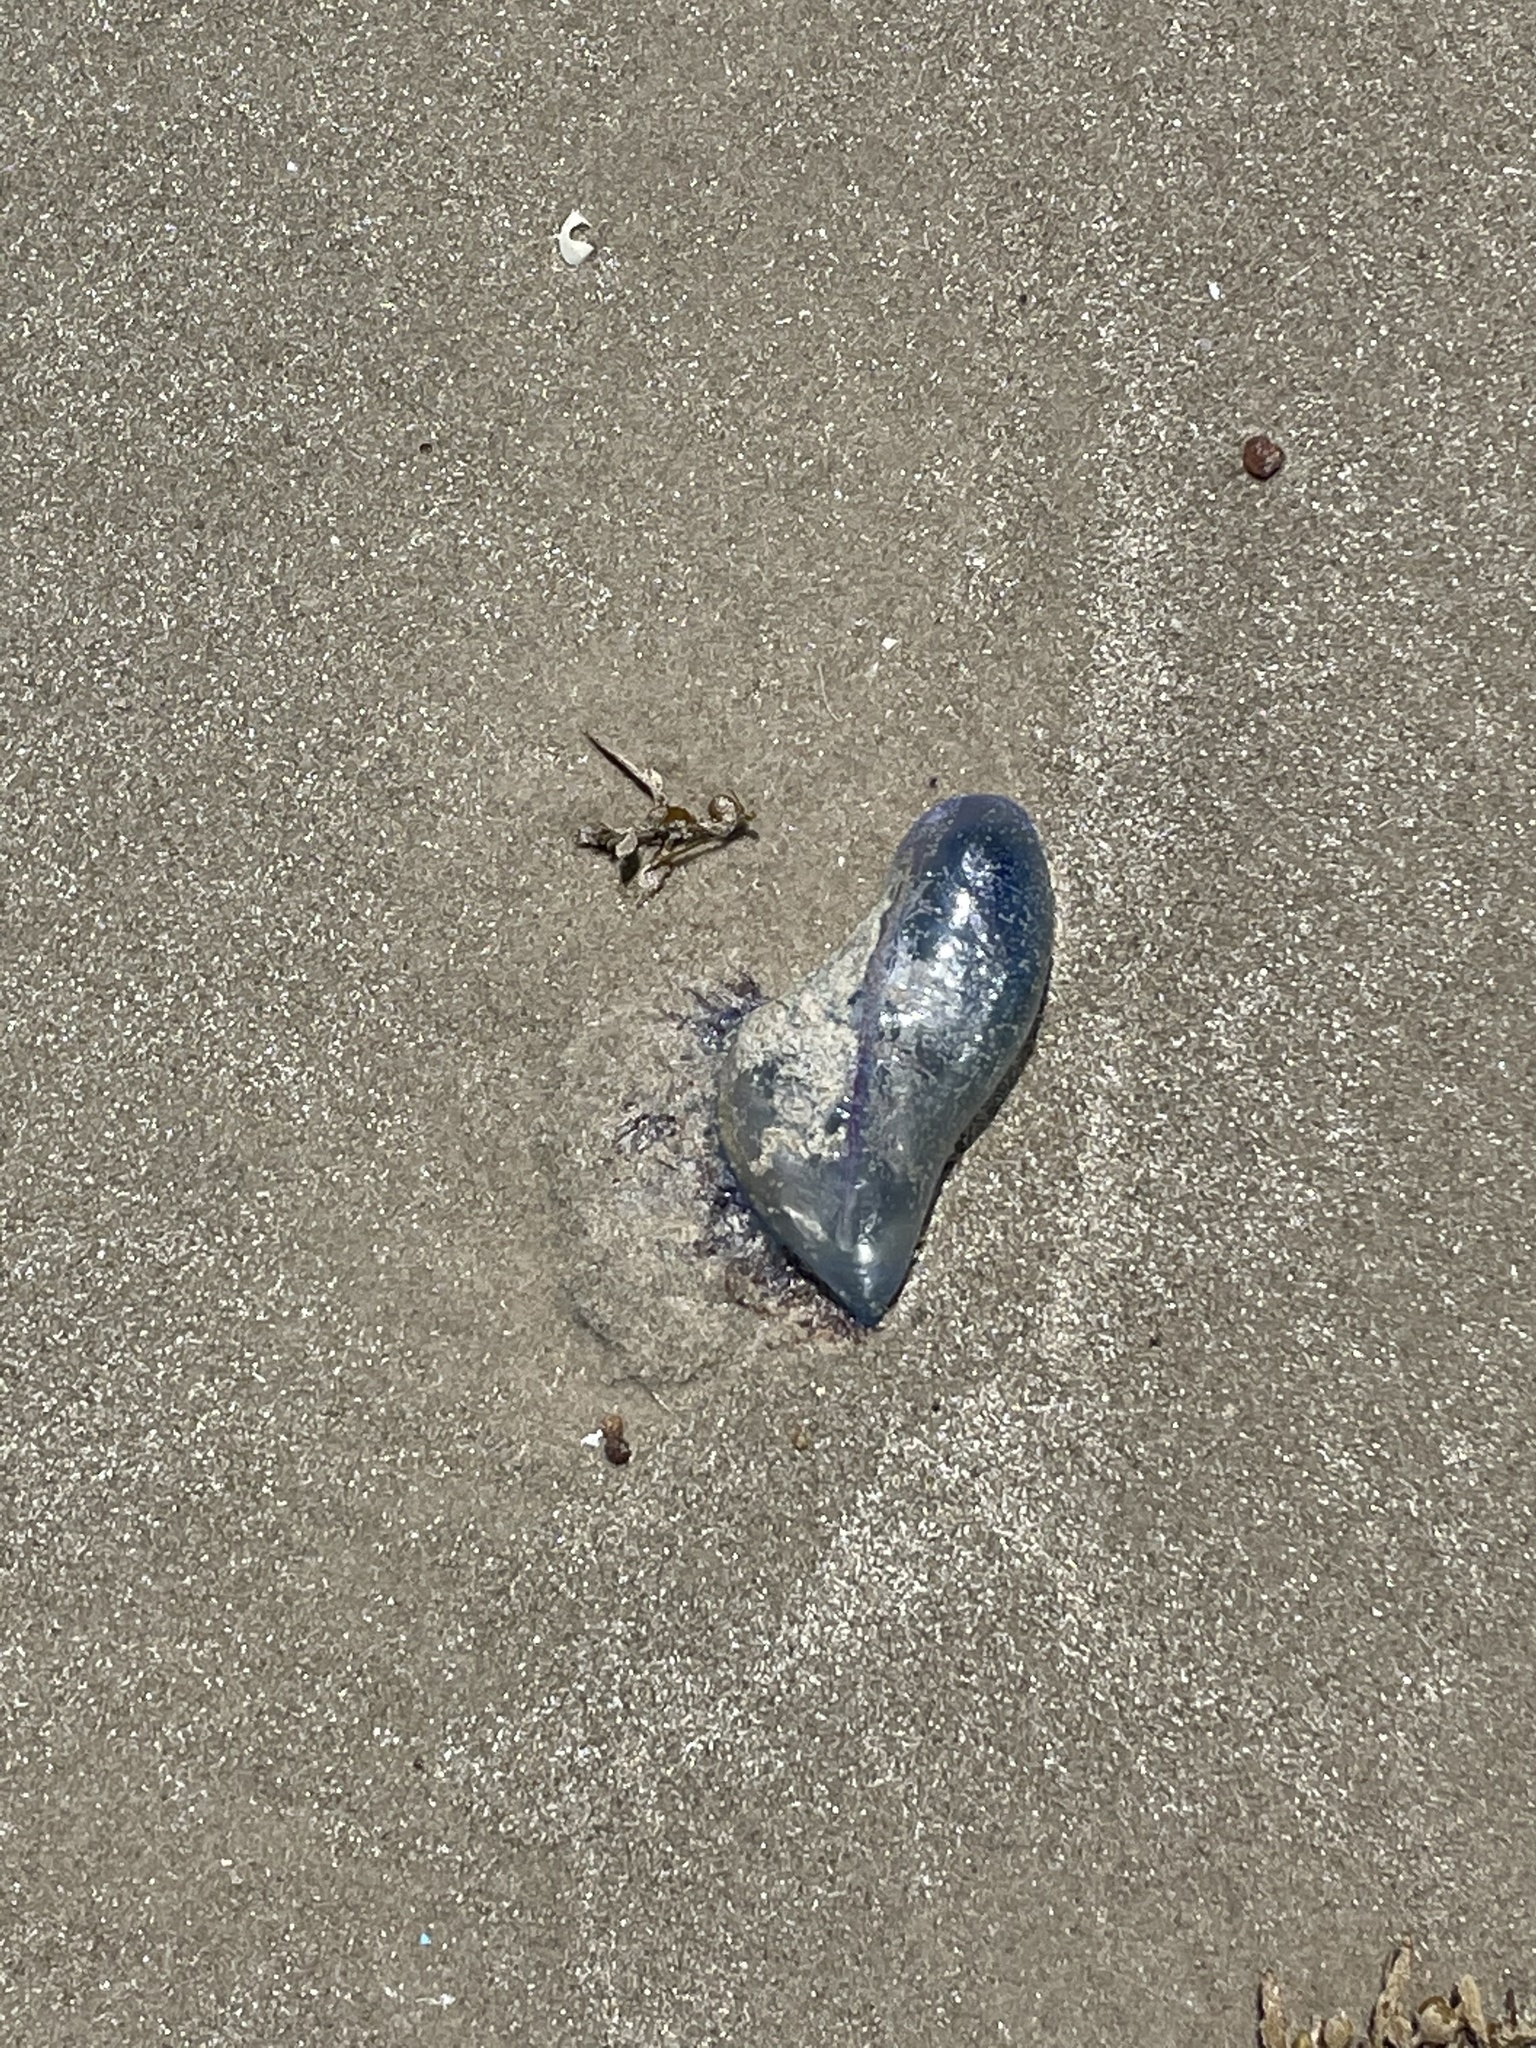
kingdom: Animalia
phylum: Cnidaria
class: Hydrozoa
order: Siphonophorae
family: Physaliidae
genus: Physalia
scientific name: Physalia physalis
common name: Portuguese man-of-war
